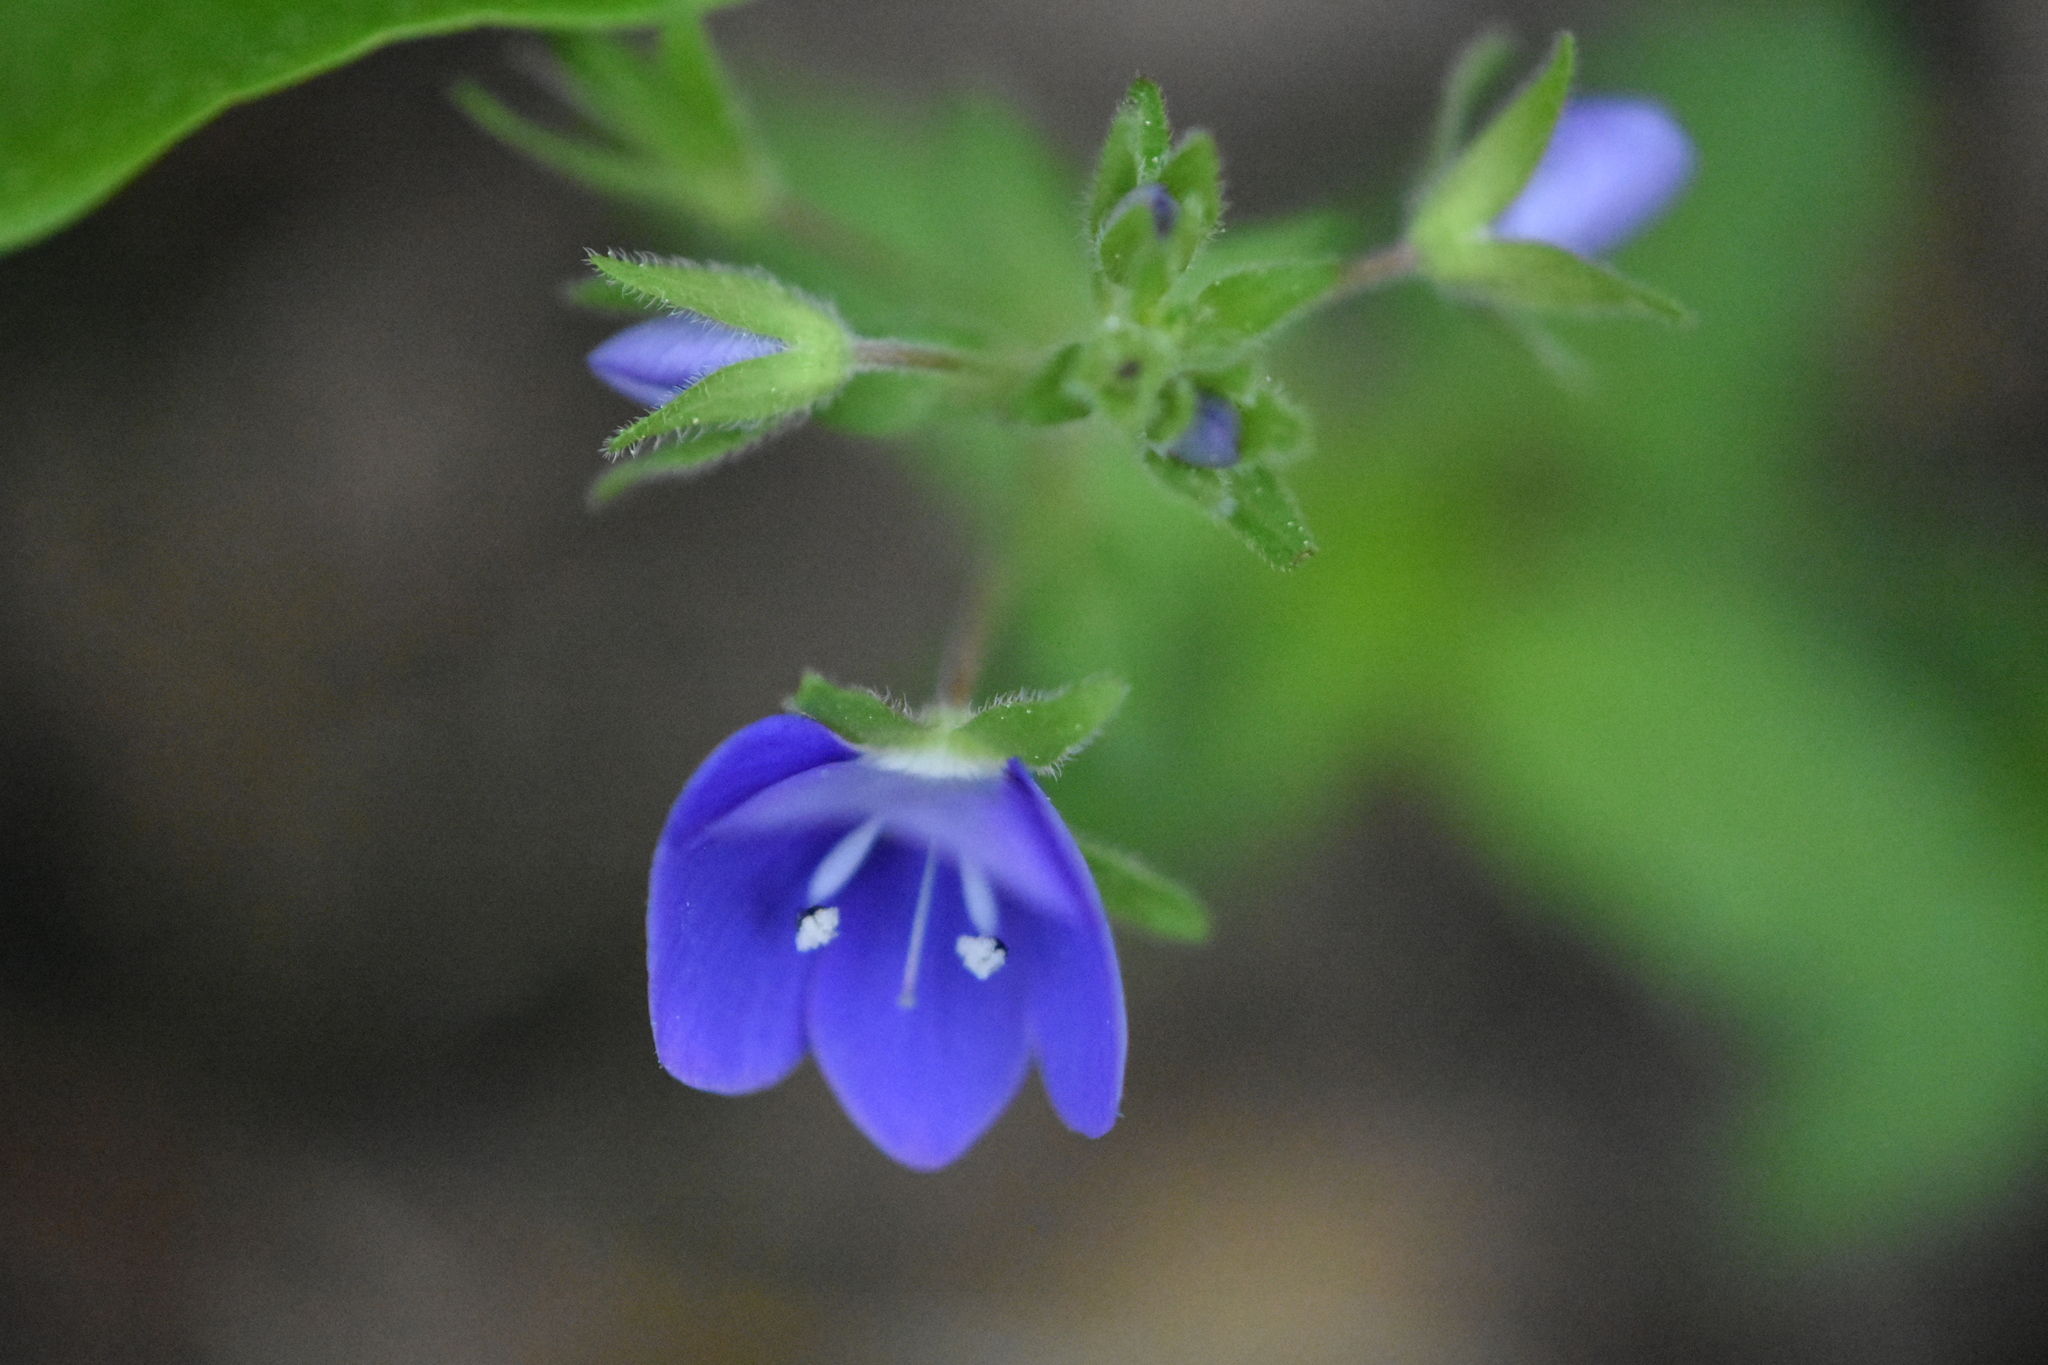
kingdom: Plantae
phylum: Tracheophyta
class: Magnoliopsida
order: Lamiales
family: Plantaginaceae
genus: Veronica
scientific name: Veronica
